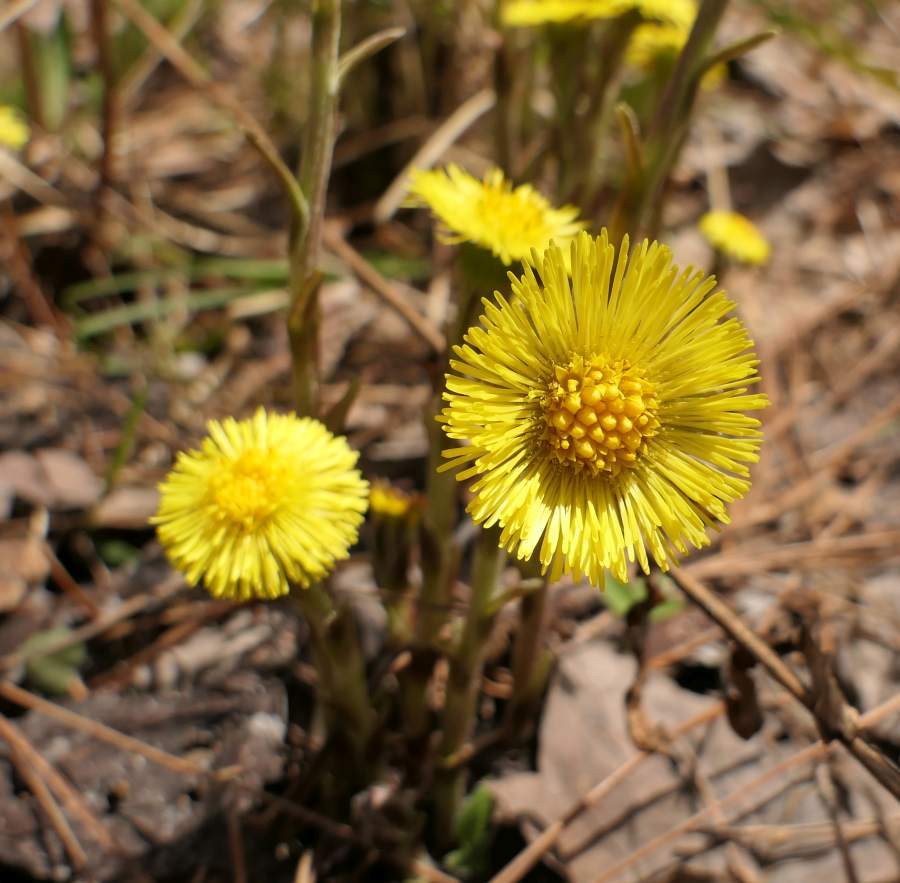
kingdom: Plantae
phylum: Tracheophyta
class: Magnoliopsida
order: Asterales
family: Asteraceae
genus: Tussilago
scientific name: Tussilago farfara
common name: Coltsfoot
